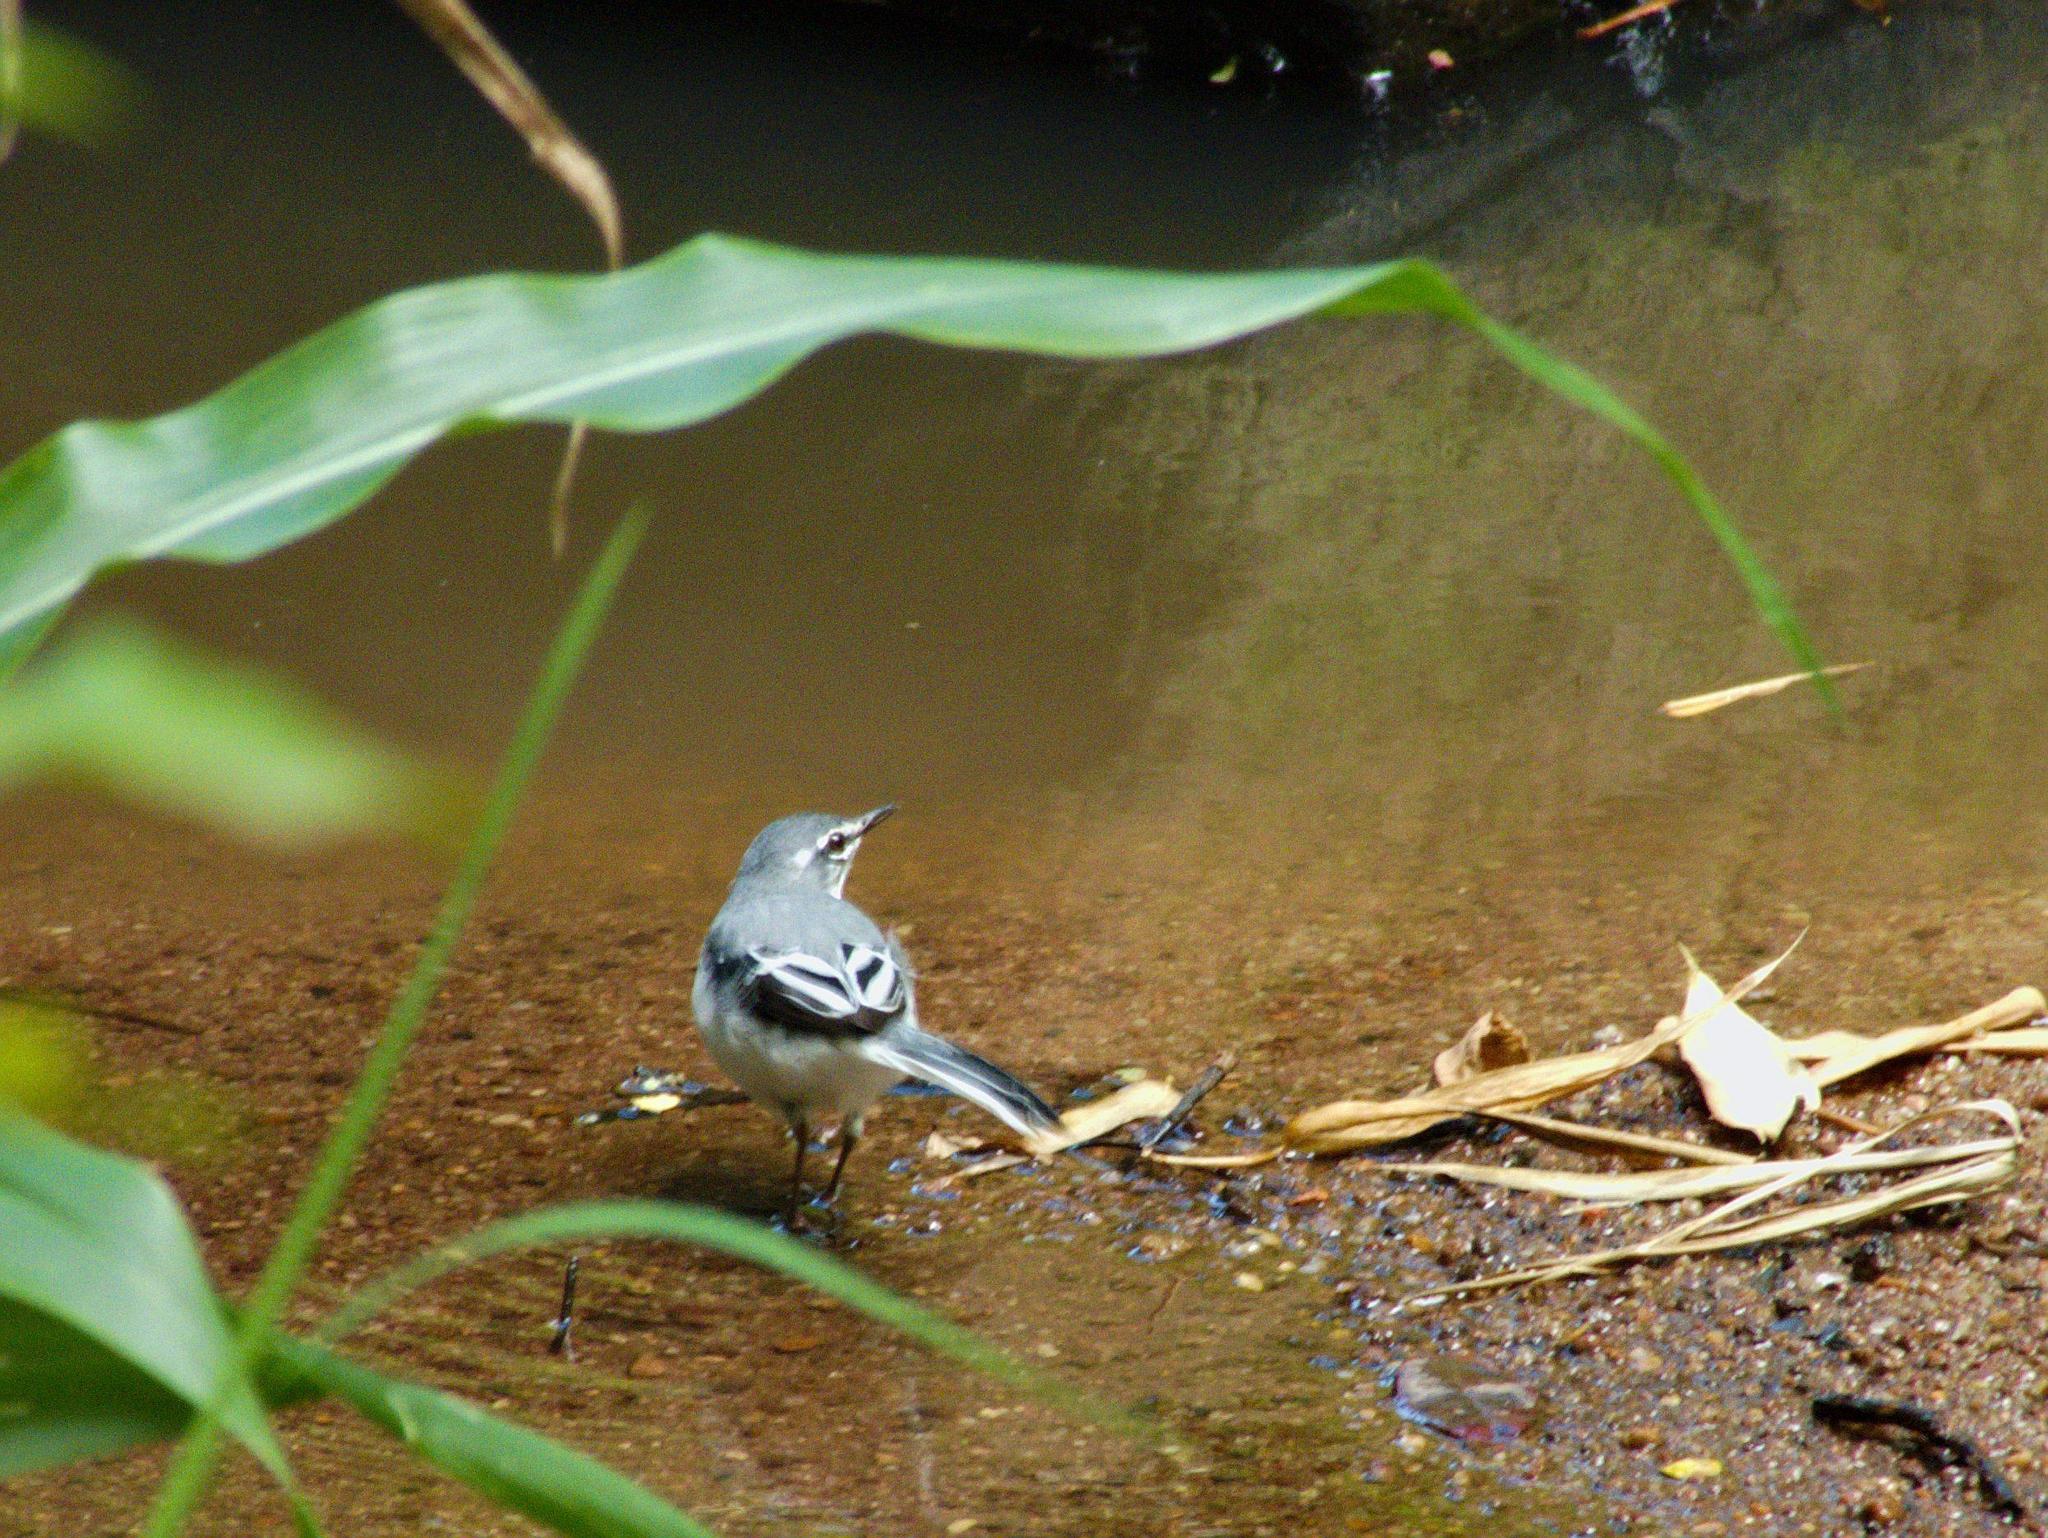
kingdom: Animalia
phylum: Chordata
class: Aves
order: Passeriformes
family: Motacillidae
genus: Motacilla
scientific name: Motacilla clara
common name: Mountain wagtail
